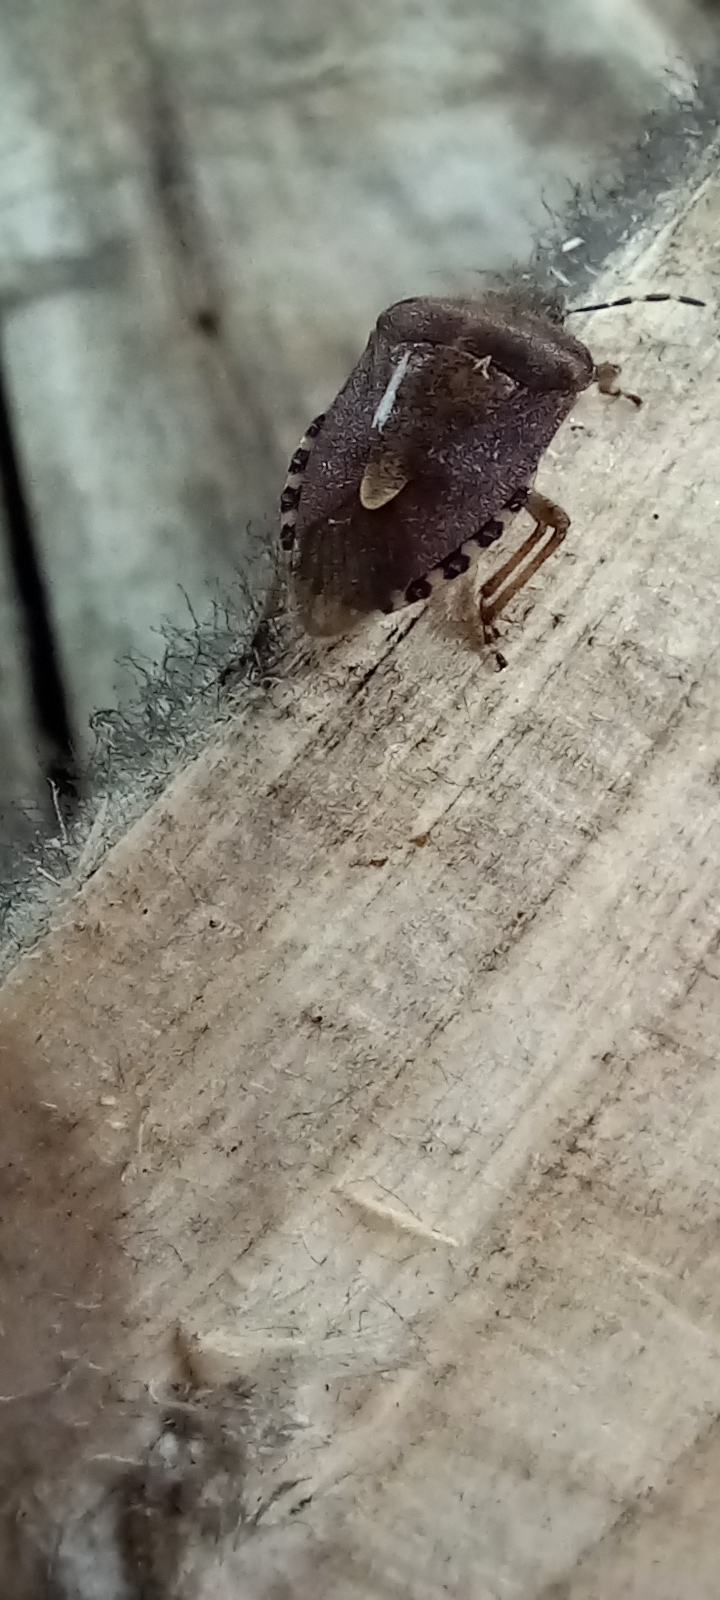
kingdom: Animalia
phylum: Arthropoda
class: Insecta
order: Hemiptera
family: Pentatomidae
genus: Dolycoris
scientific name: Dolycoris baccarum
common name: Sloe bug
